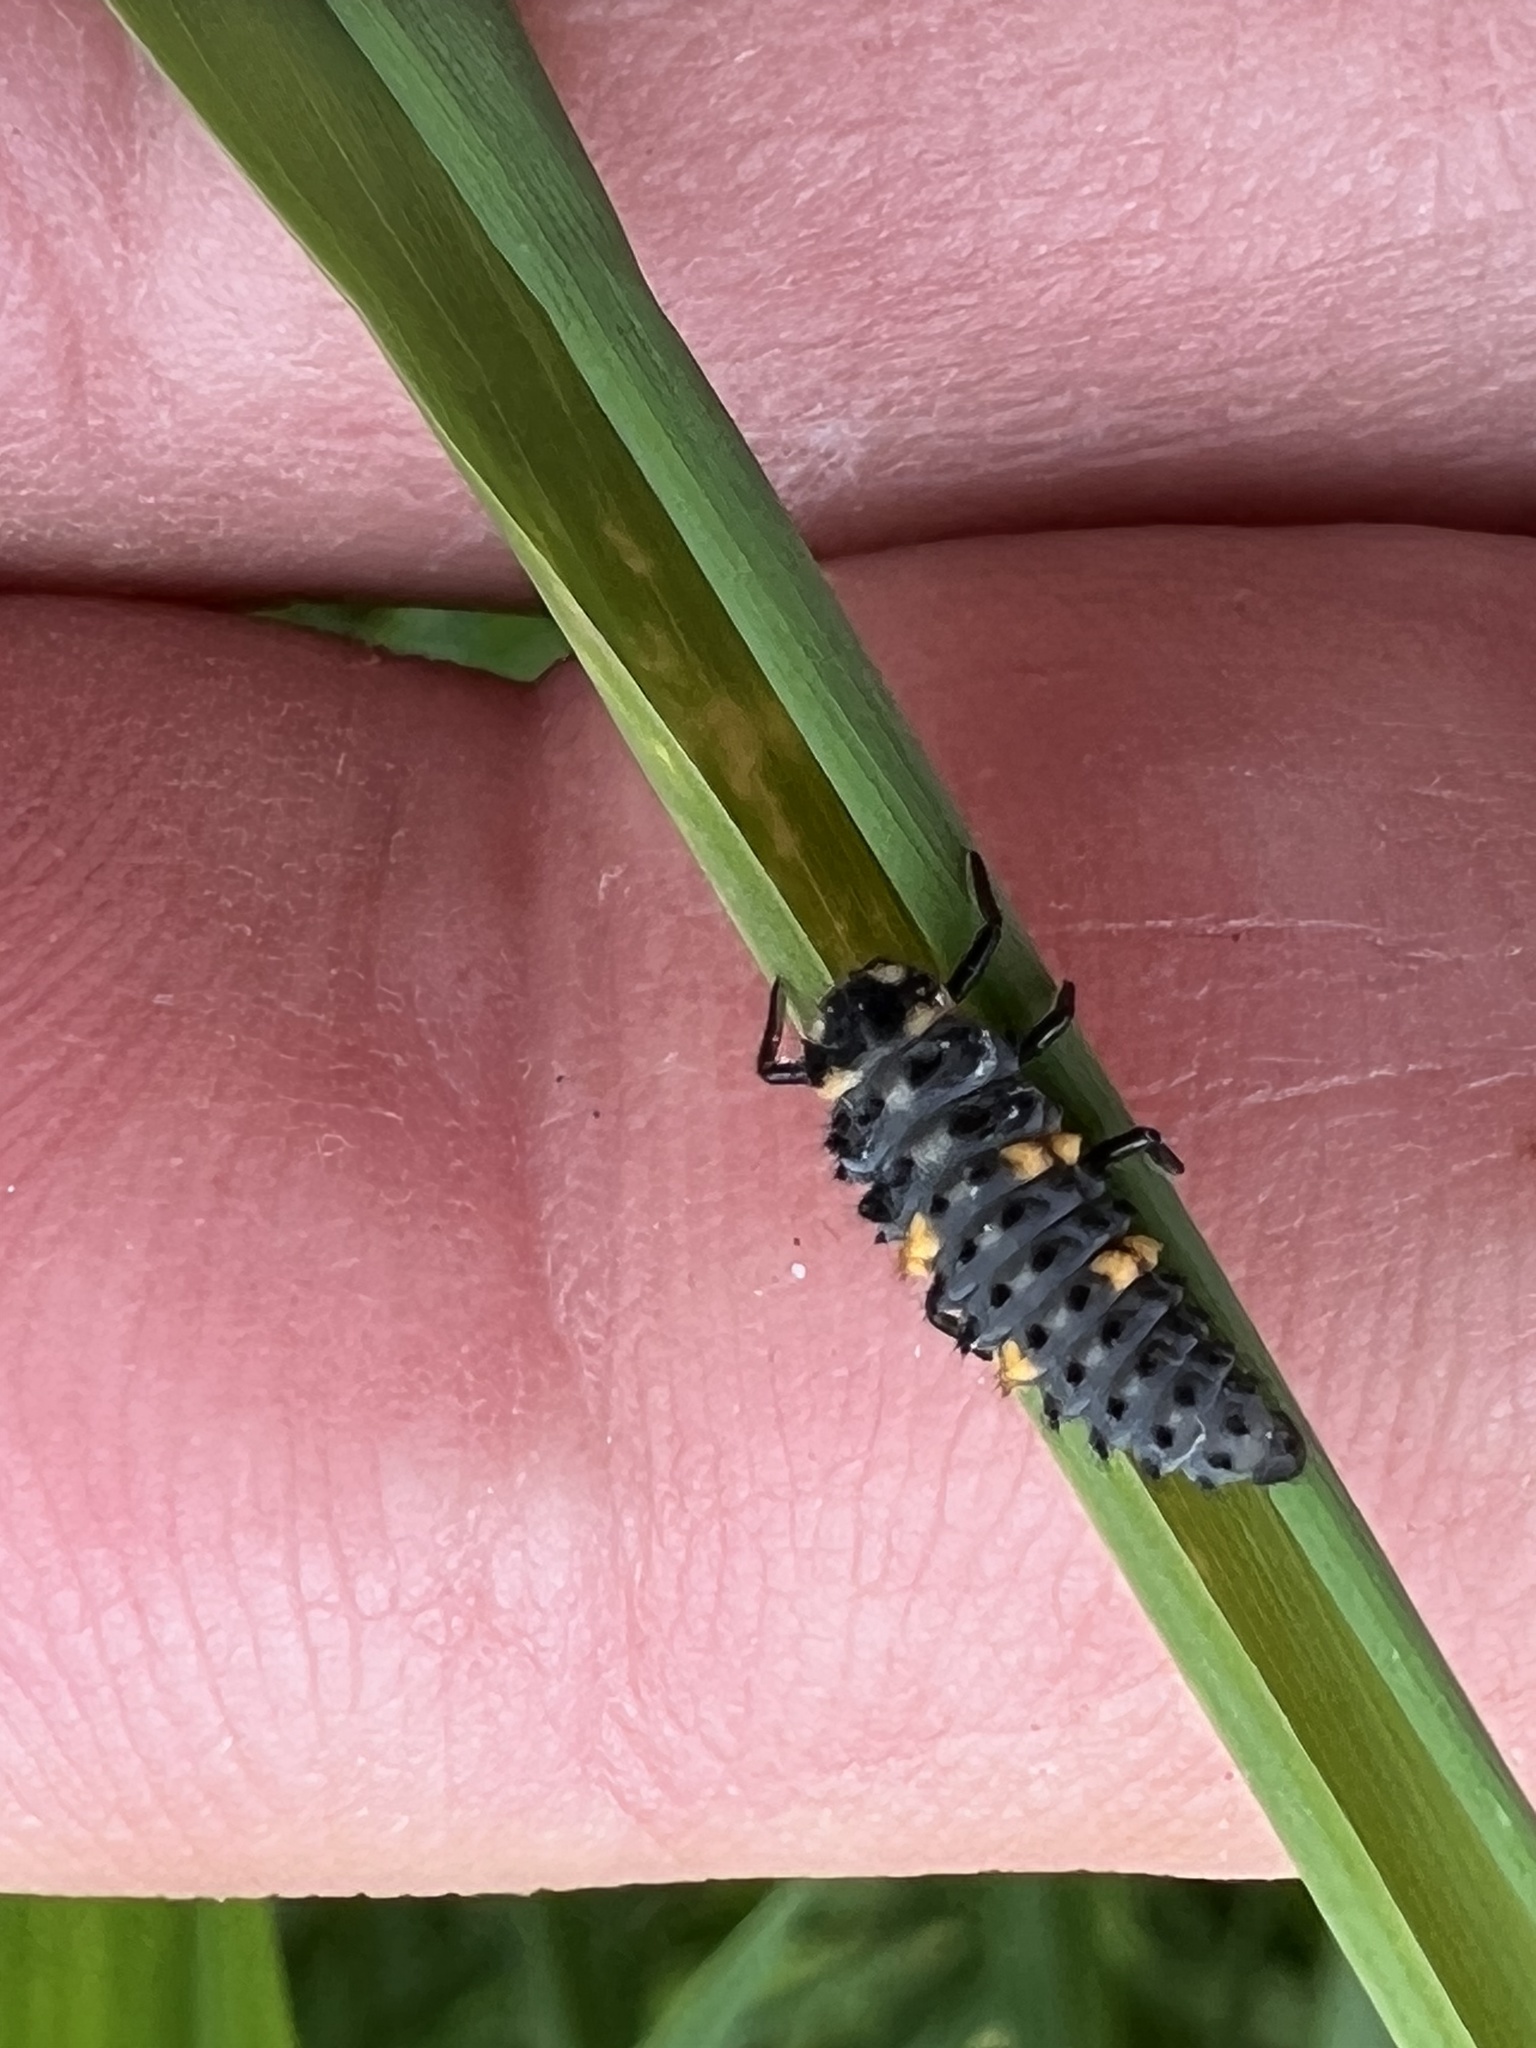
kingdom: Animalia
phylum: Arthropoda
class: Insecta
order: Coleoptera
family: Coccinellidae
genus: Coccinella
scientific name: Coccinella septempunctata
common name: Sevenspotted lady beetle
